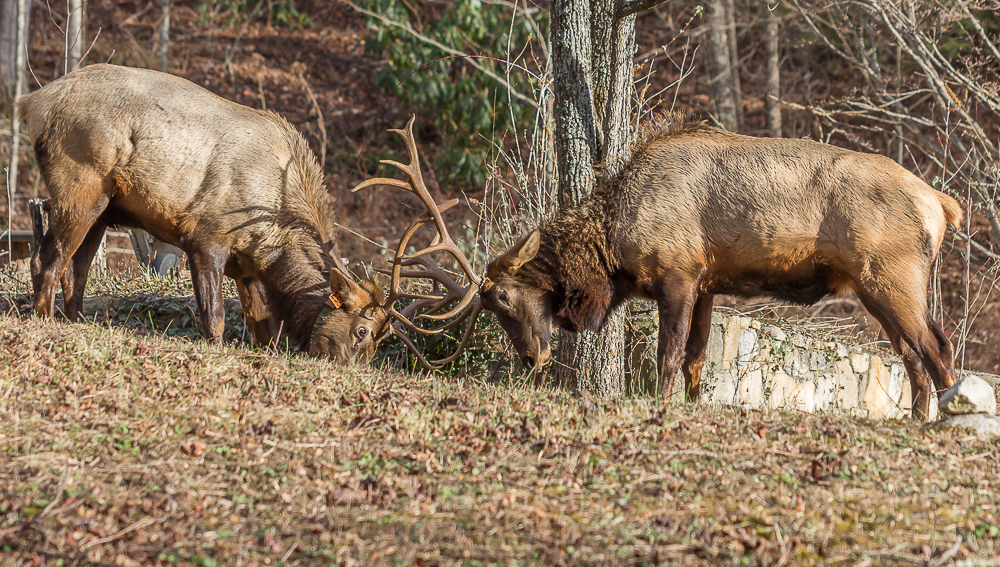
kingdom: Animalia
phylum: Chordata
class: Mammalia
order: Artiodactyla
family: Cervidae
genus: Cervus
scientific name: Cervus elaphus
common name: Red deer
